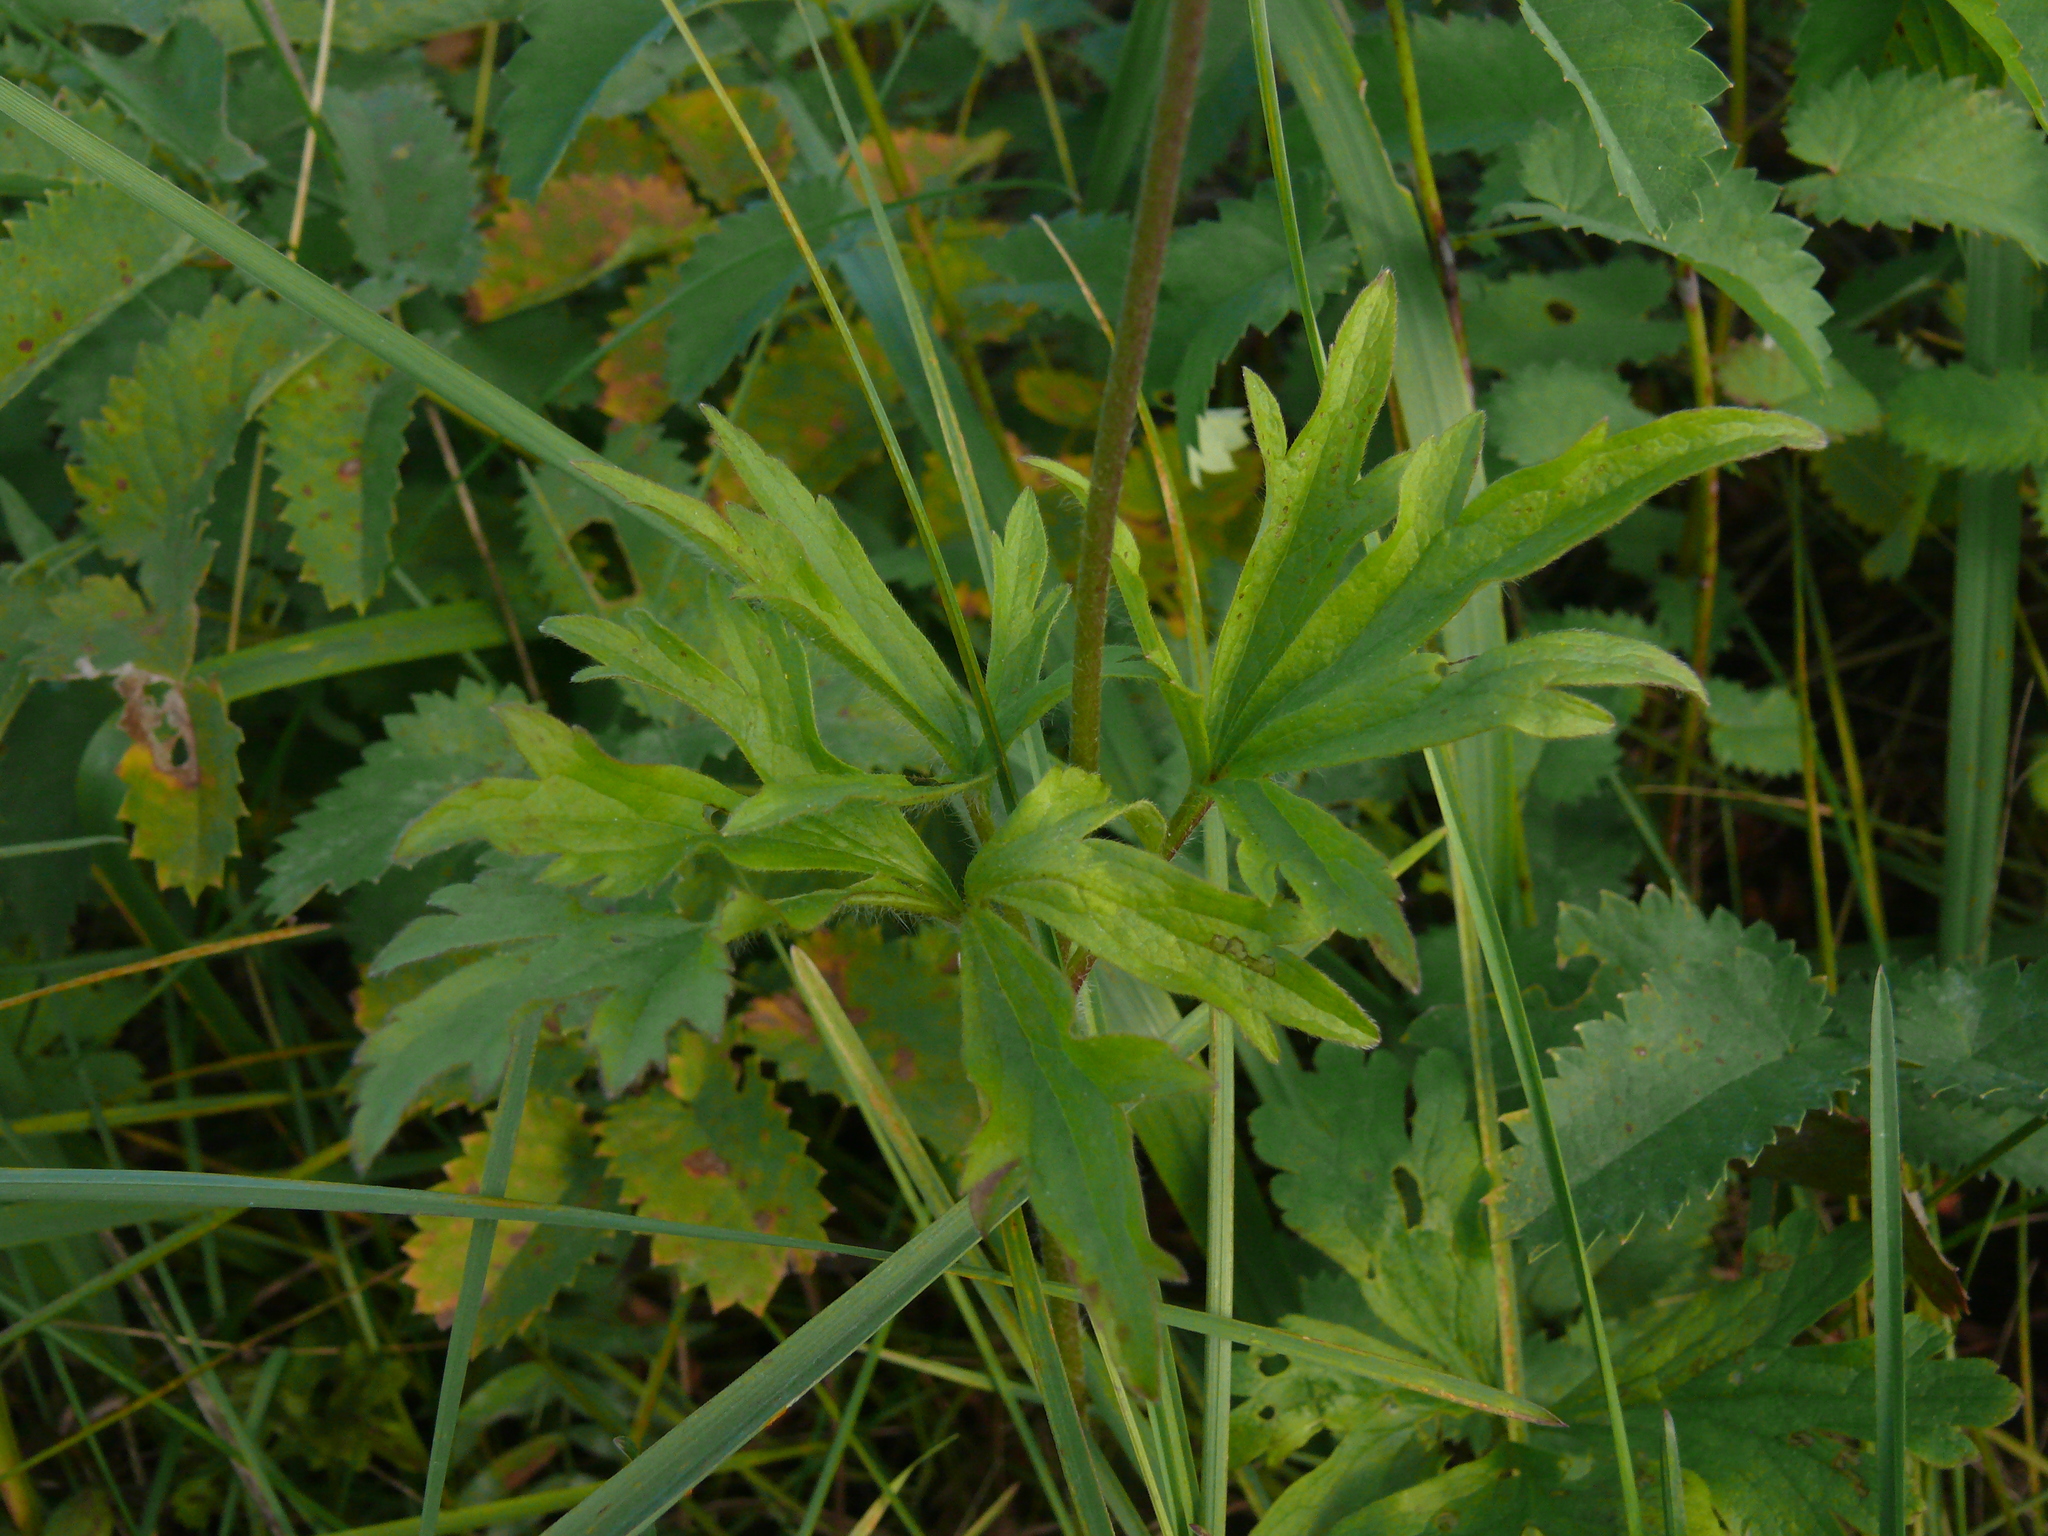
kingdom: Plantae
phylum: Tracheophyta
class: Magnoliopsida
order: Ranunculales
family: Ranunculaceae
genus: Anemone
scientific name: Anemone sylvestris
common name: Snowdrop anemone
